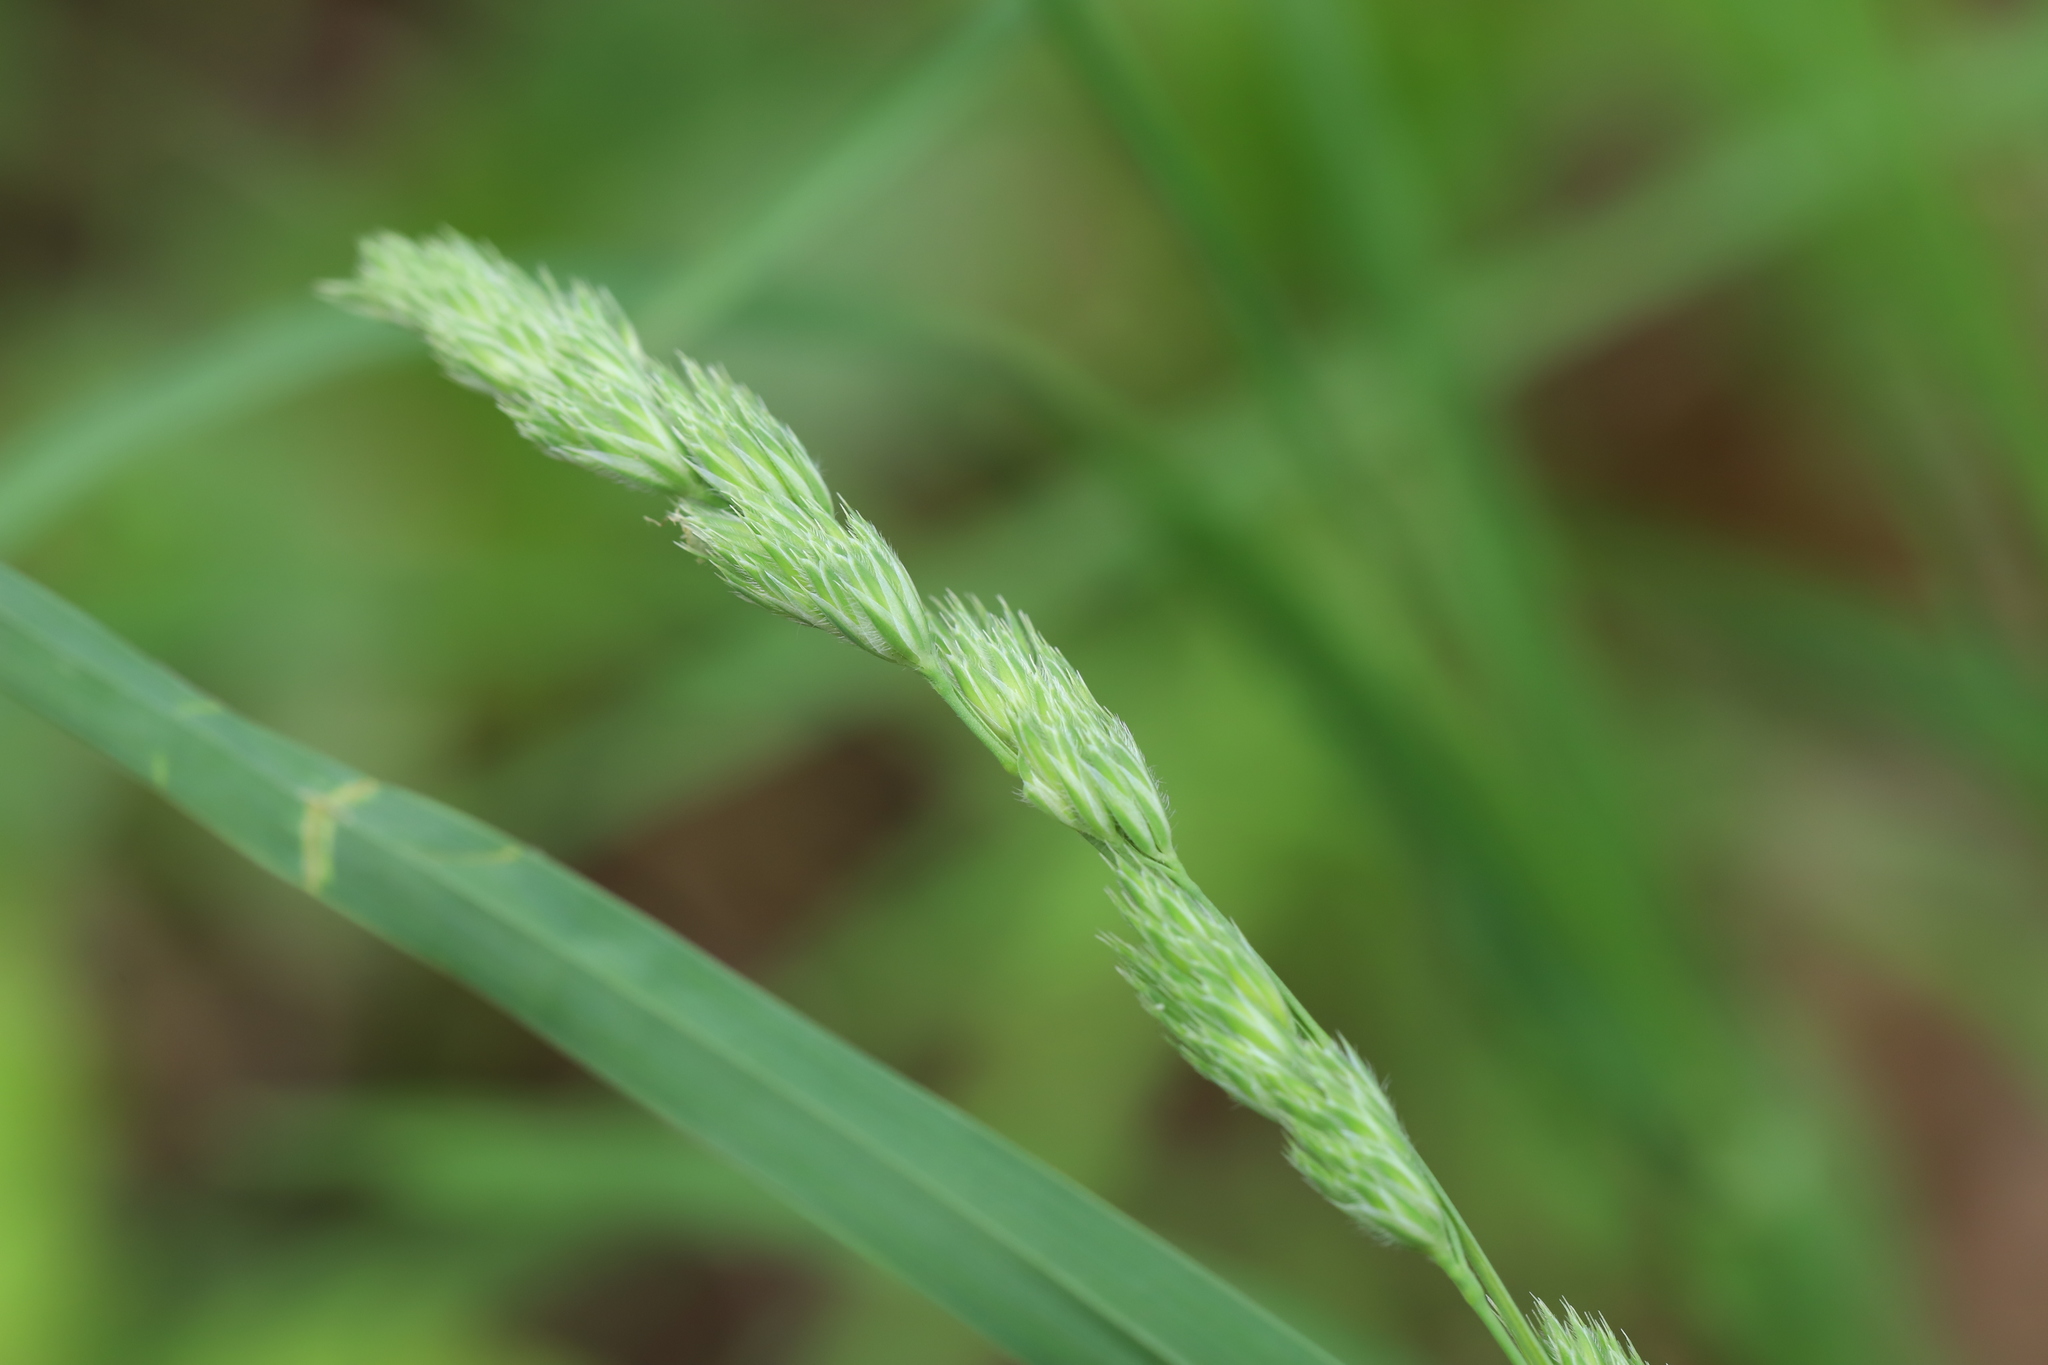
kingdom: Plantae
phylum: Tracheophyta
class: Liliopsida
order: Poales
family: Poaceae
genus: Dactylis
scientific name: Dactylis glomerata
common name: Orchardgrass
